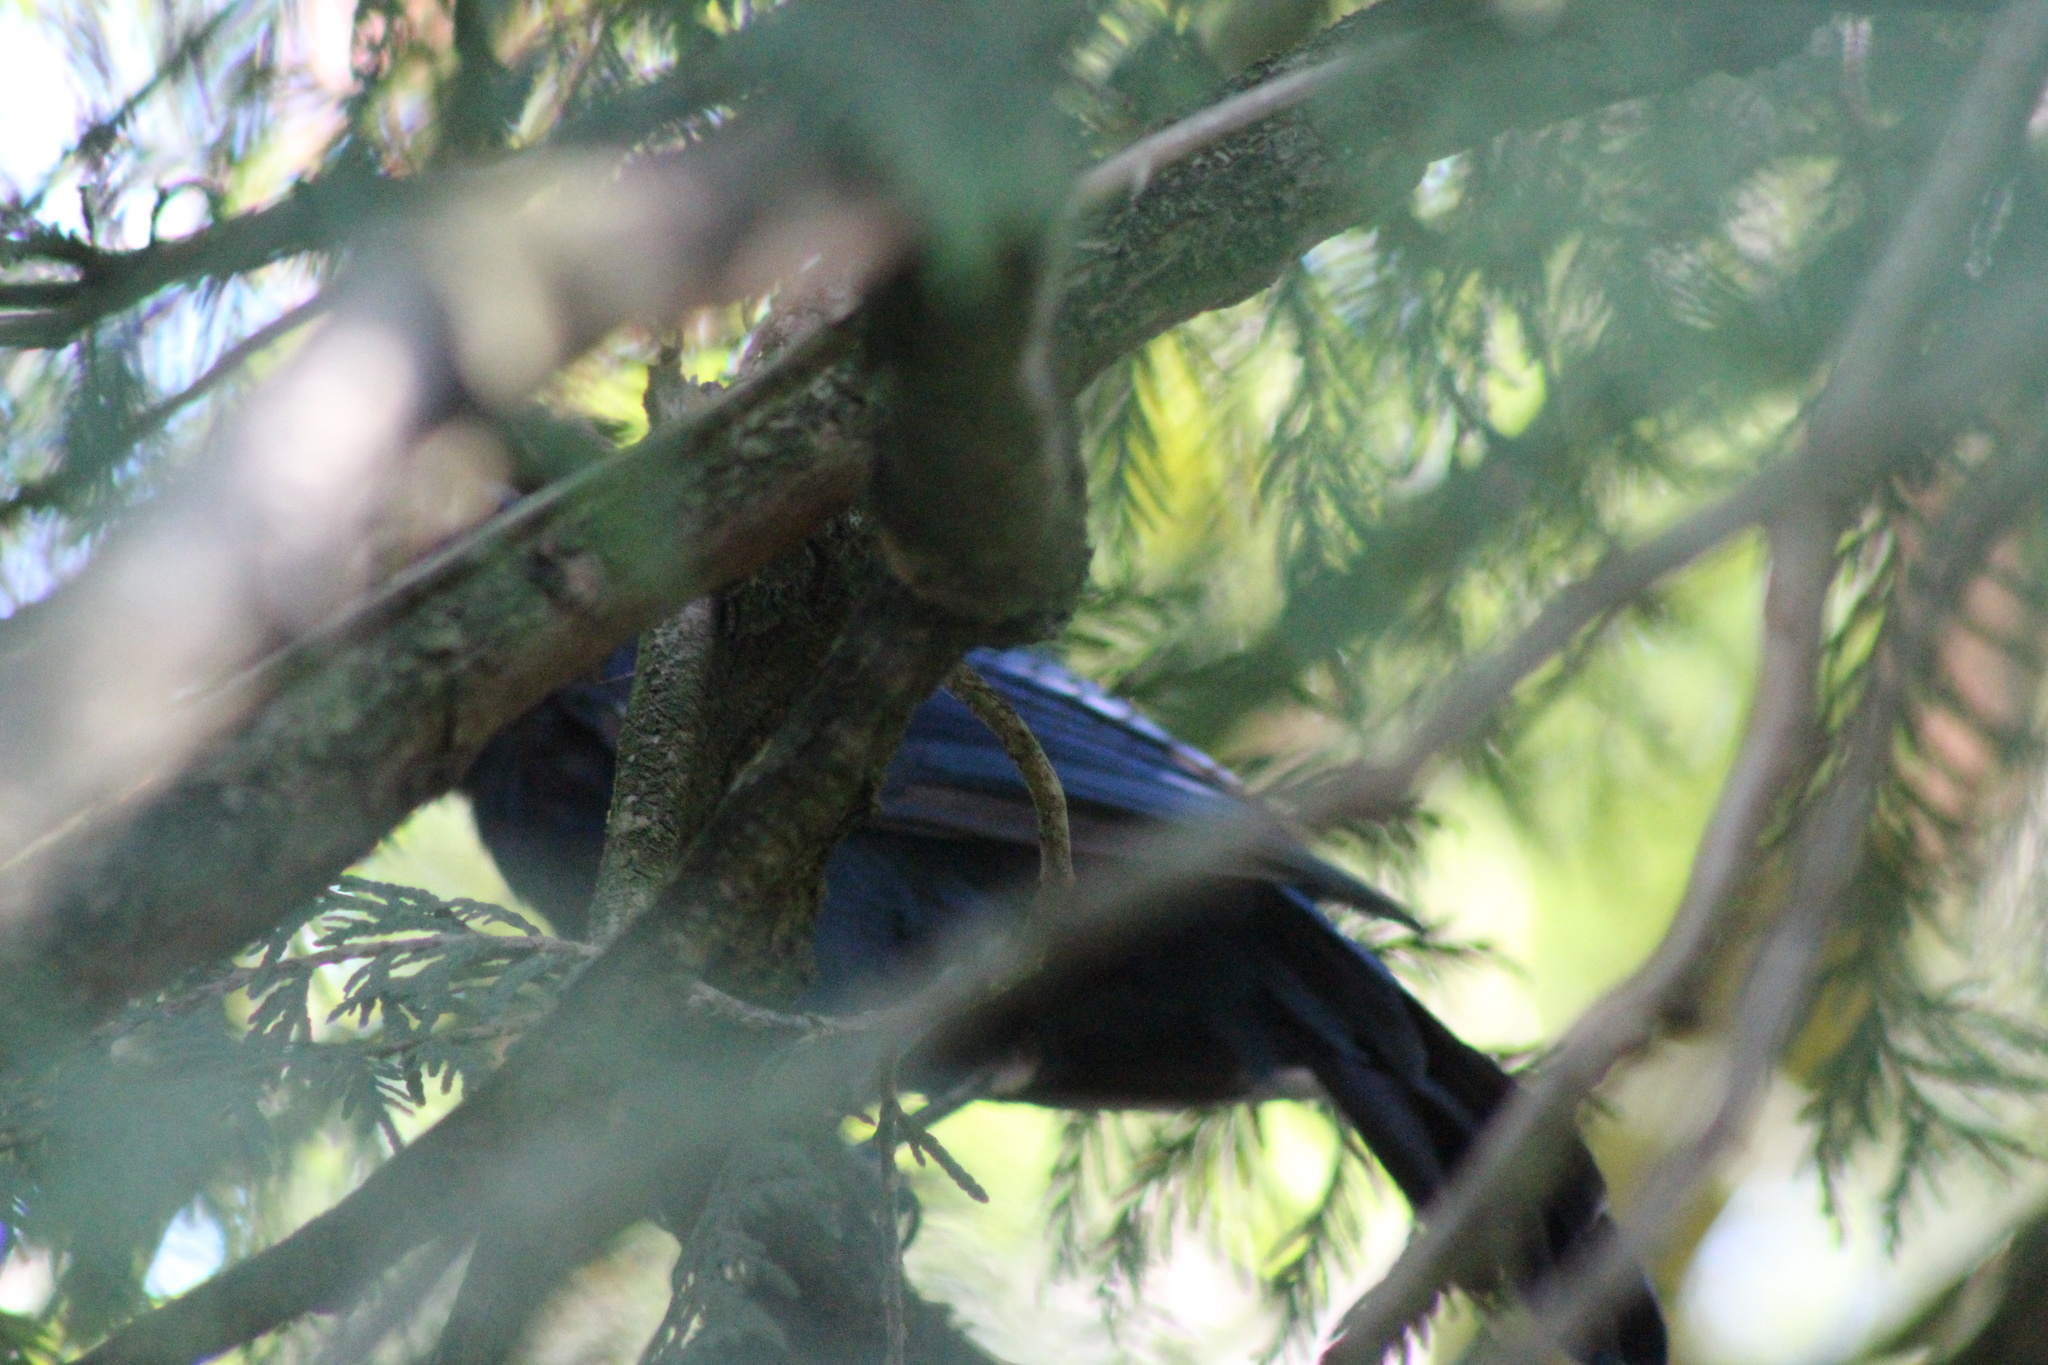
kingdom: Animalia
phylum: Chordata
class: Aves
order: Passeriformes
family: Corvidae
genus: Cyanocitta
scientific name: Cyanocitta stelleri
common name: Steller's jay
